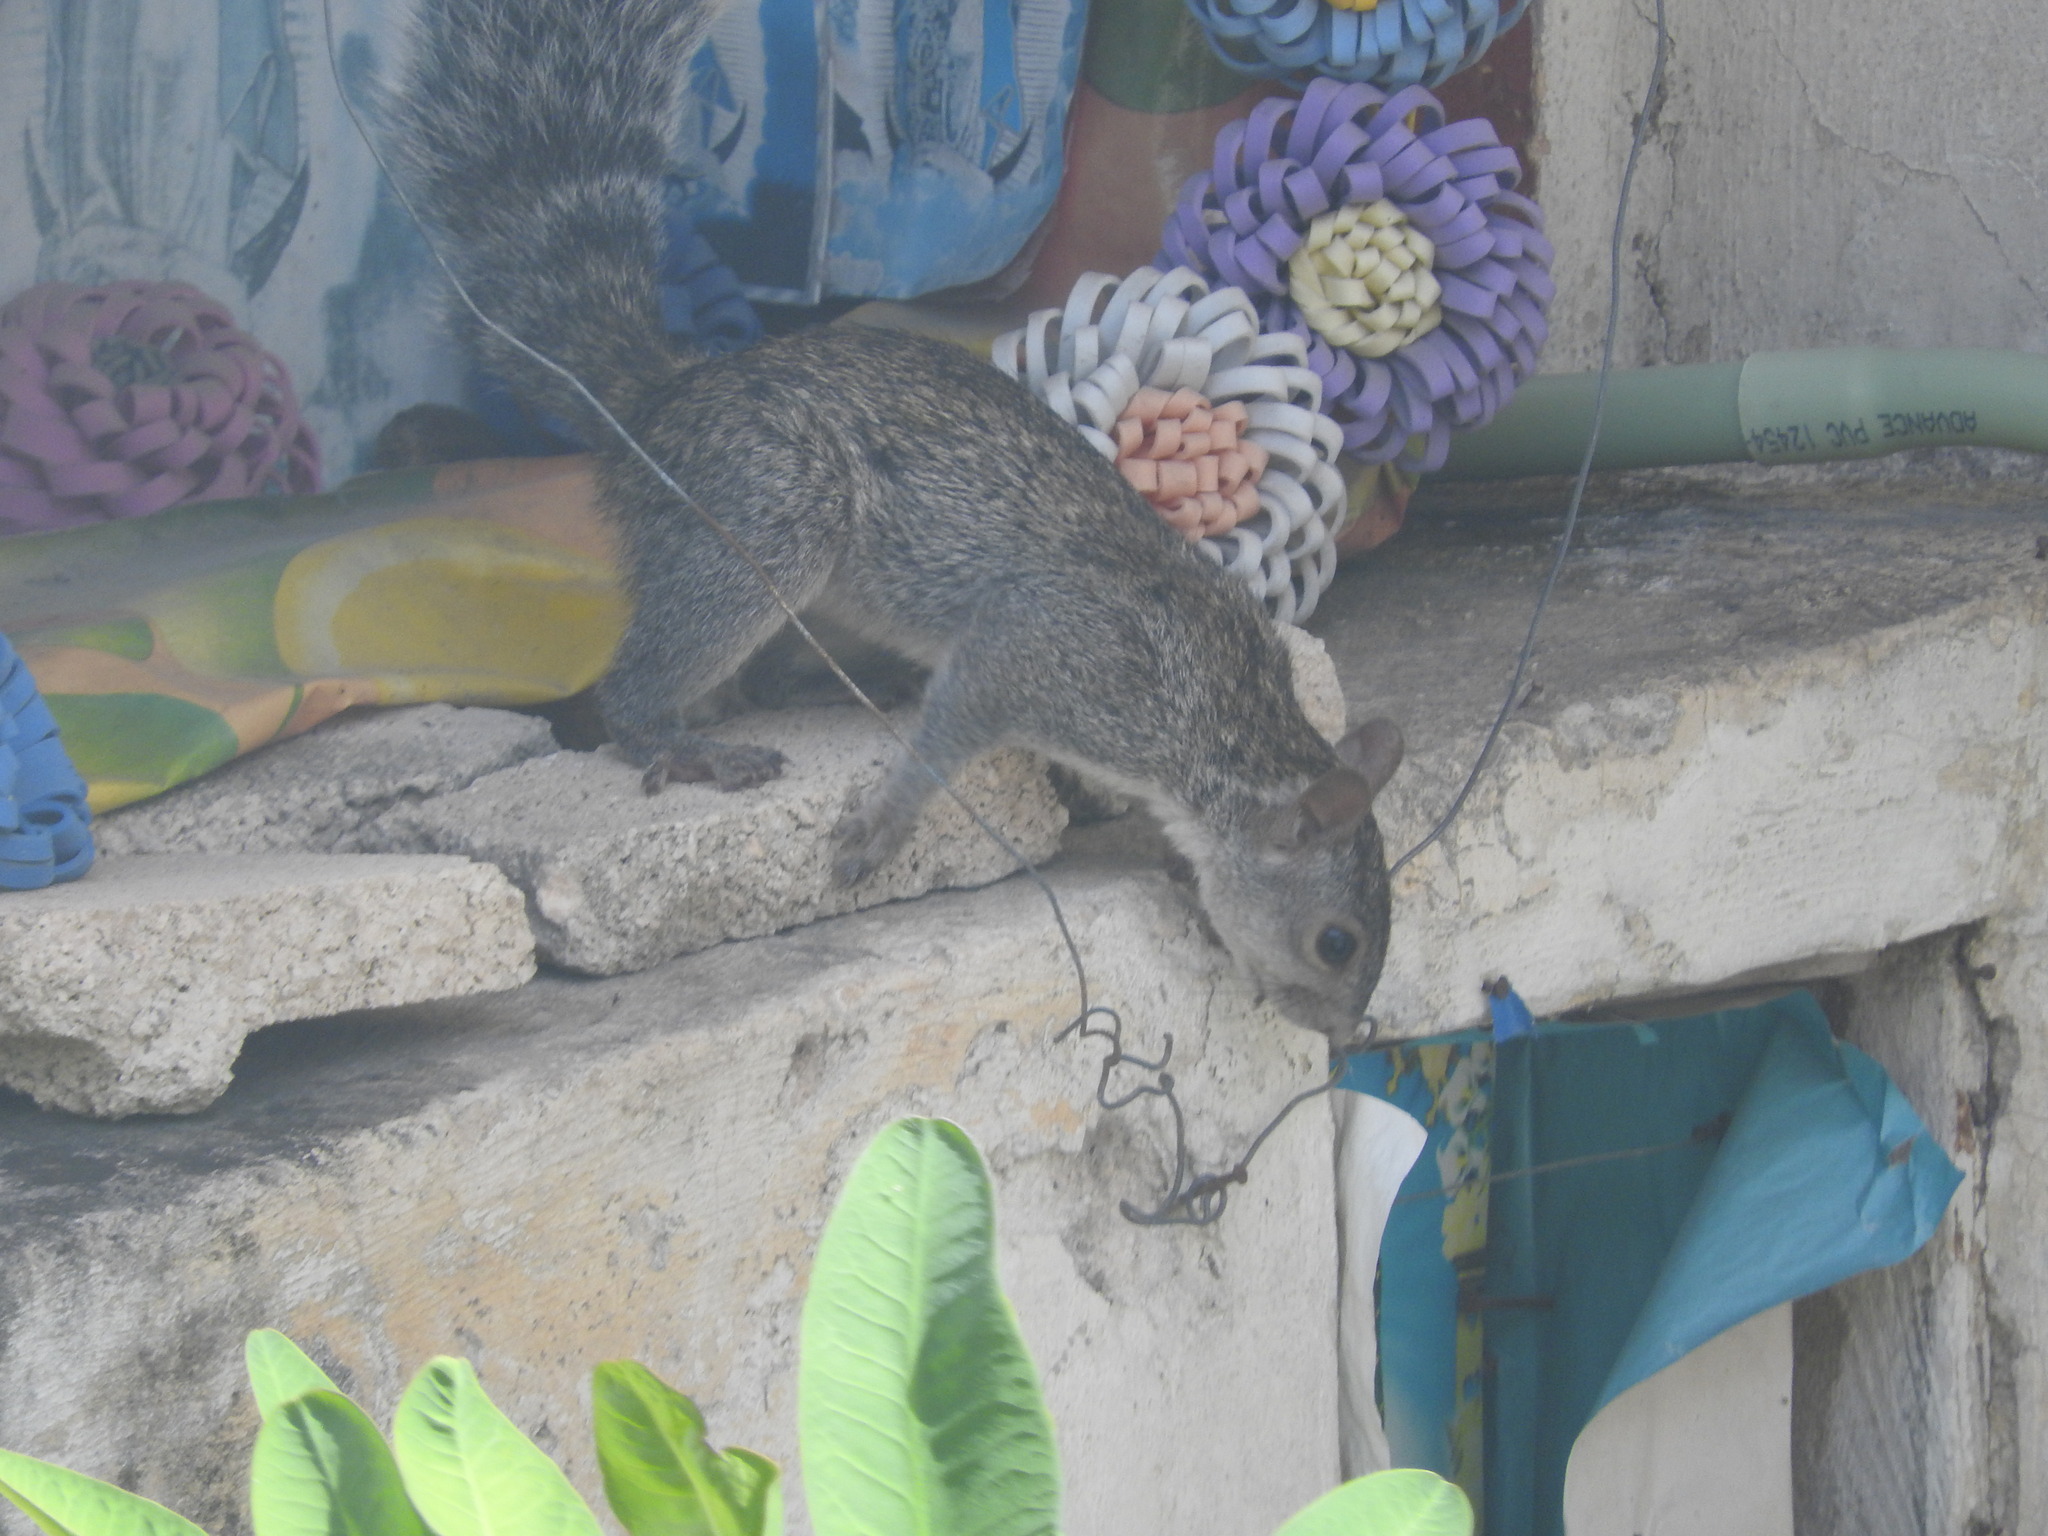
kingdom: Animalia
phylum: Chordata
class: Mammalia
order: Rodentia
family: Sciuridae
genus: Sciurus
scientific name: Sciurus yucatanensis
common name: Yucatan squirrel
